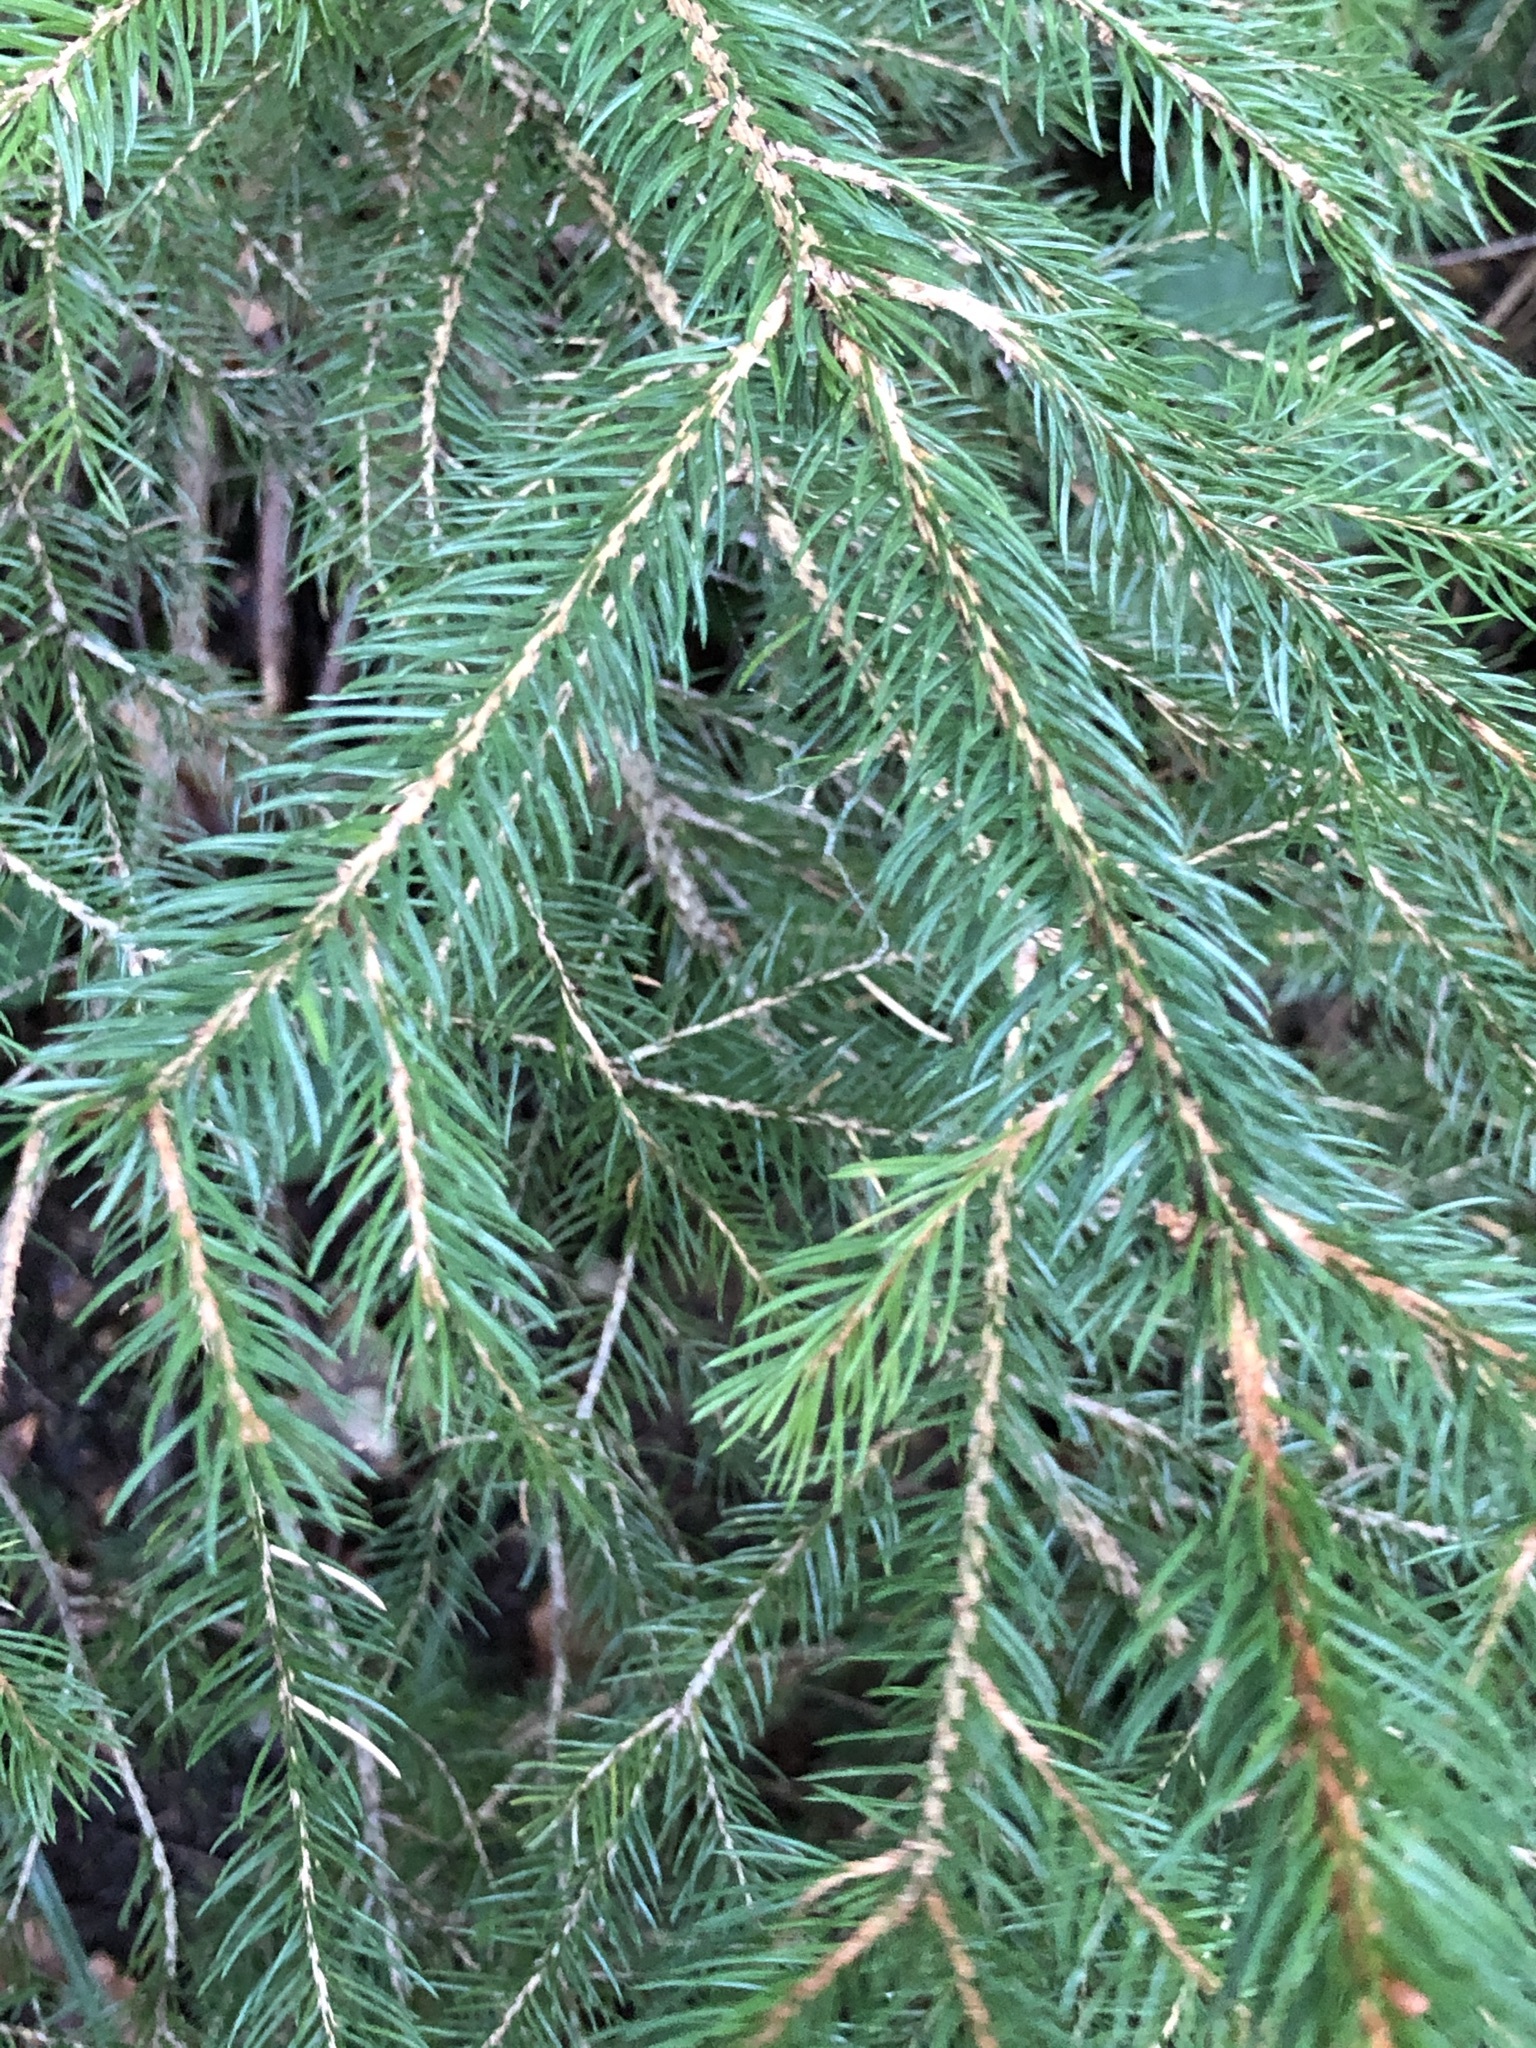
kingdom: Plantae
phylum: Tracheophyta
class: Pinopsida
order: Pinales
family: Pinaceae
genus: Picea
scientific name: Picea abies
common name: Norway spruce
